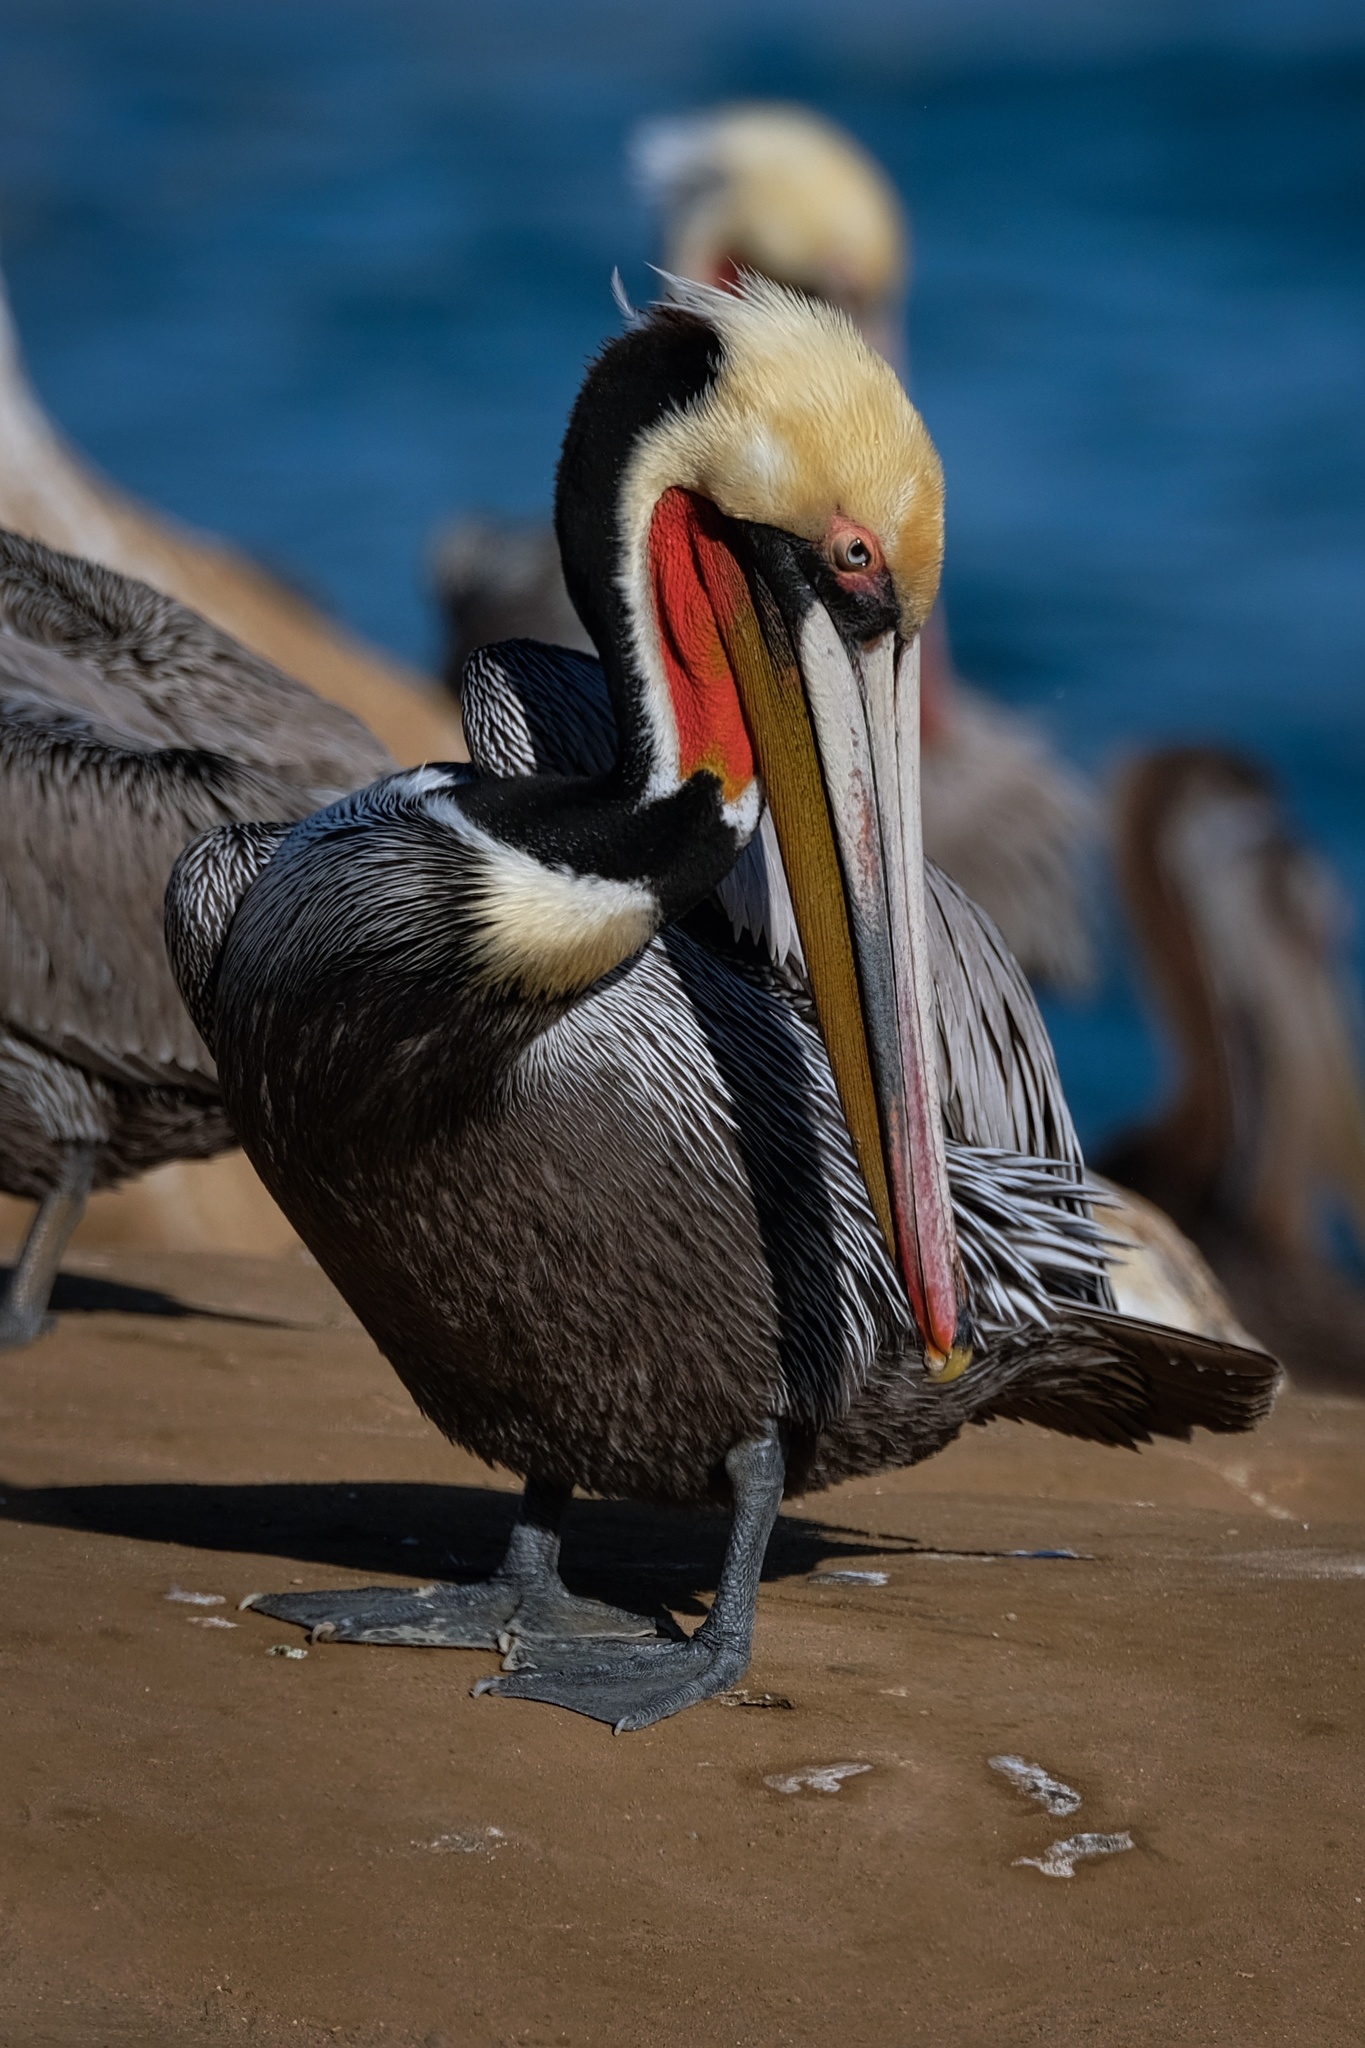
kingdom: Animalia
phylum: Chordata
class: Aves
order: Pelecaniformes
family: Pelecanidae
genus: Pelecanus
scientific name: Pelecanus occidentalis
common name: Brown pelican
